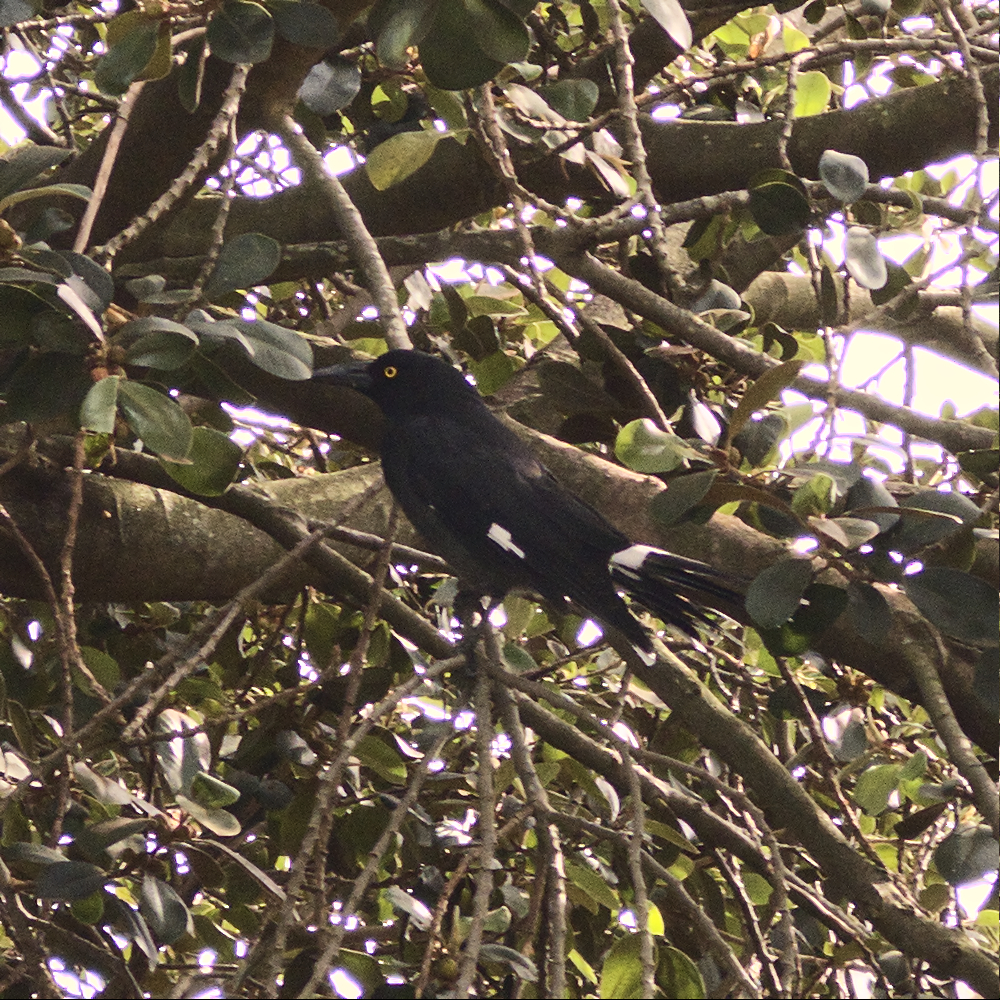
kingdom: Animalia
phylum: Chordata
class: Aves
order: Passeriformes
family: Cracticidae
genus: Strepera
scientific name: Strepera graculina
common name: Pied currawong
